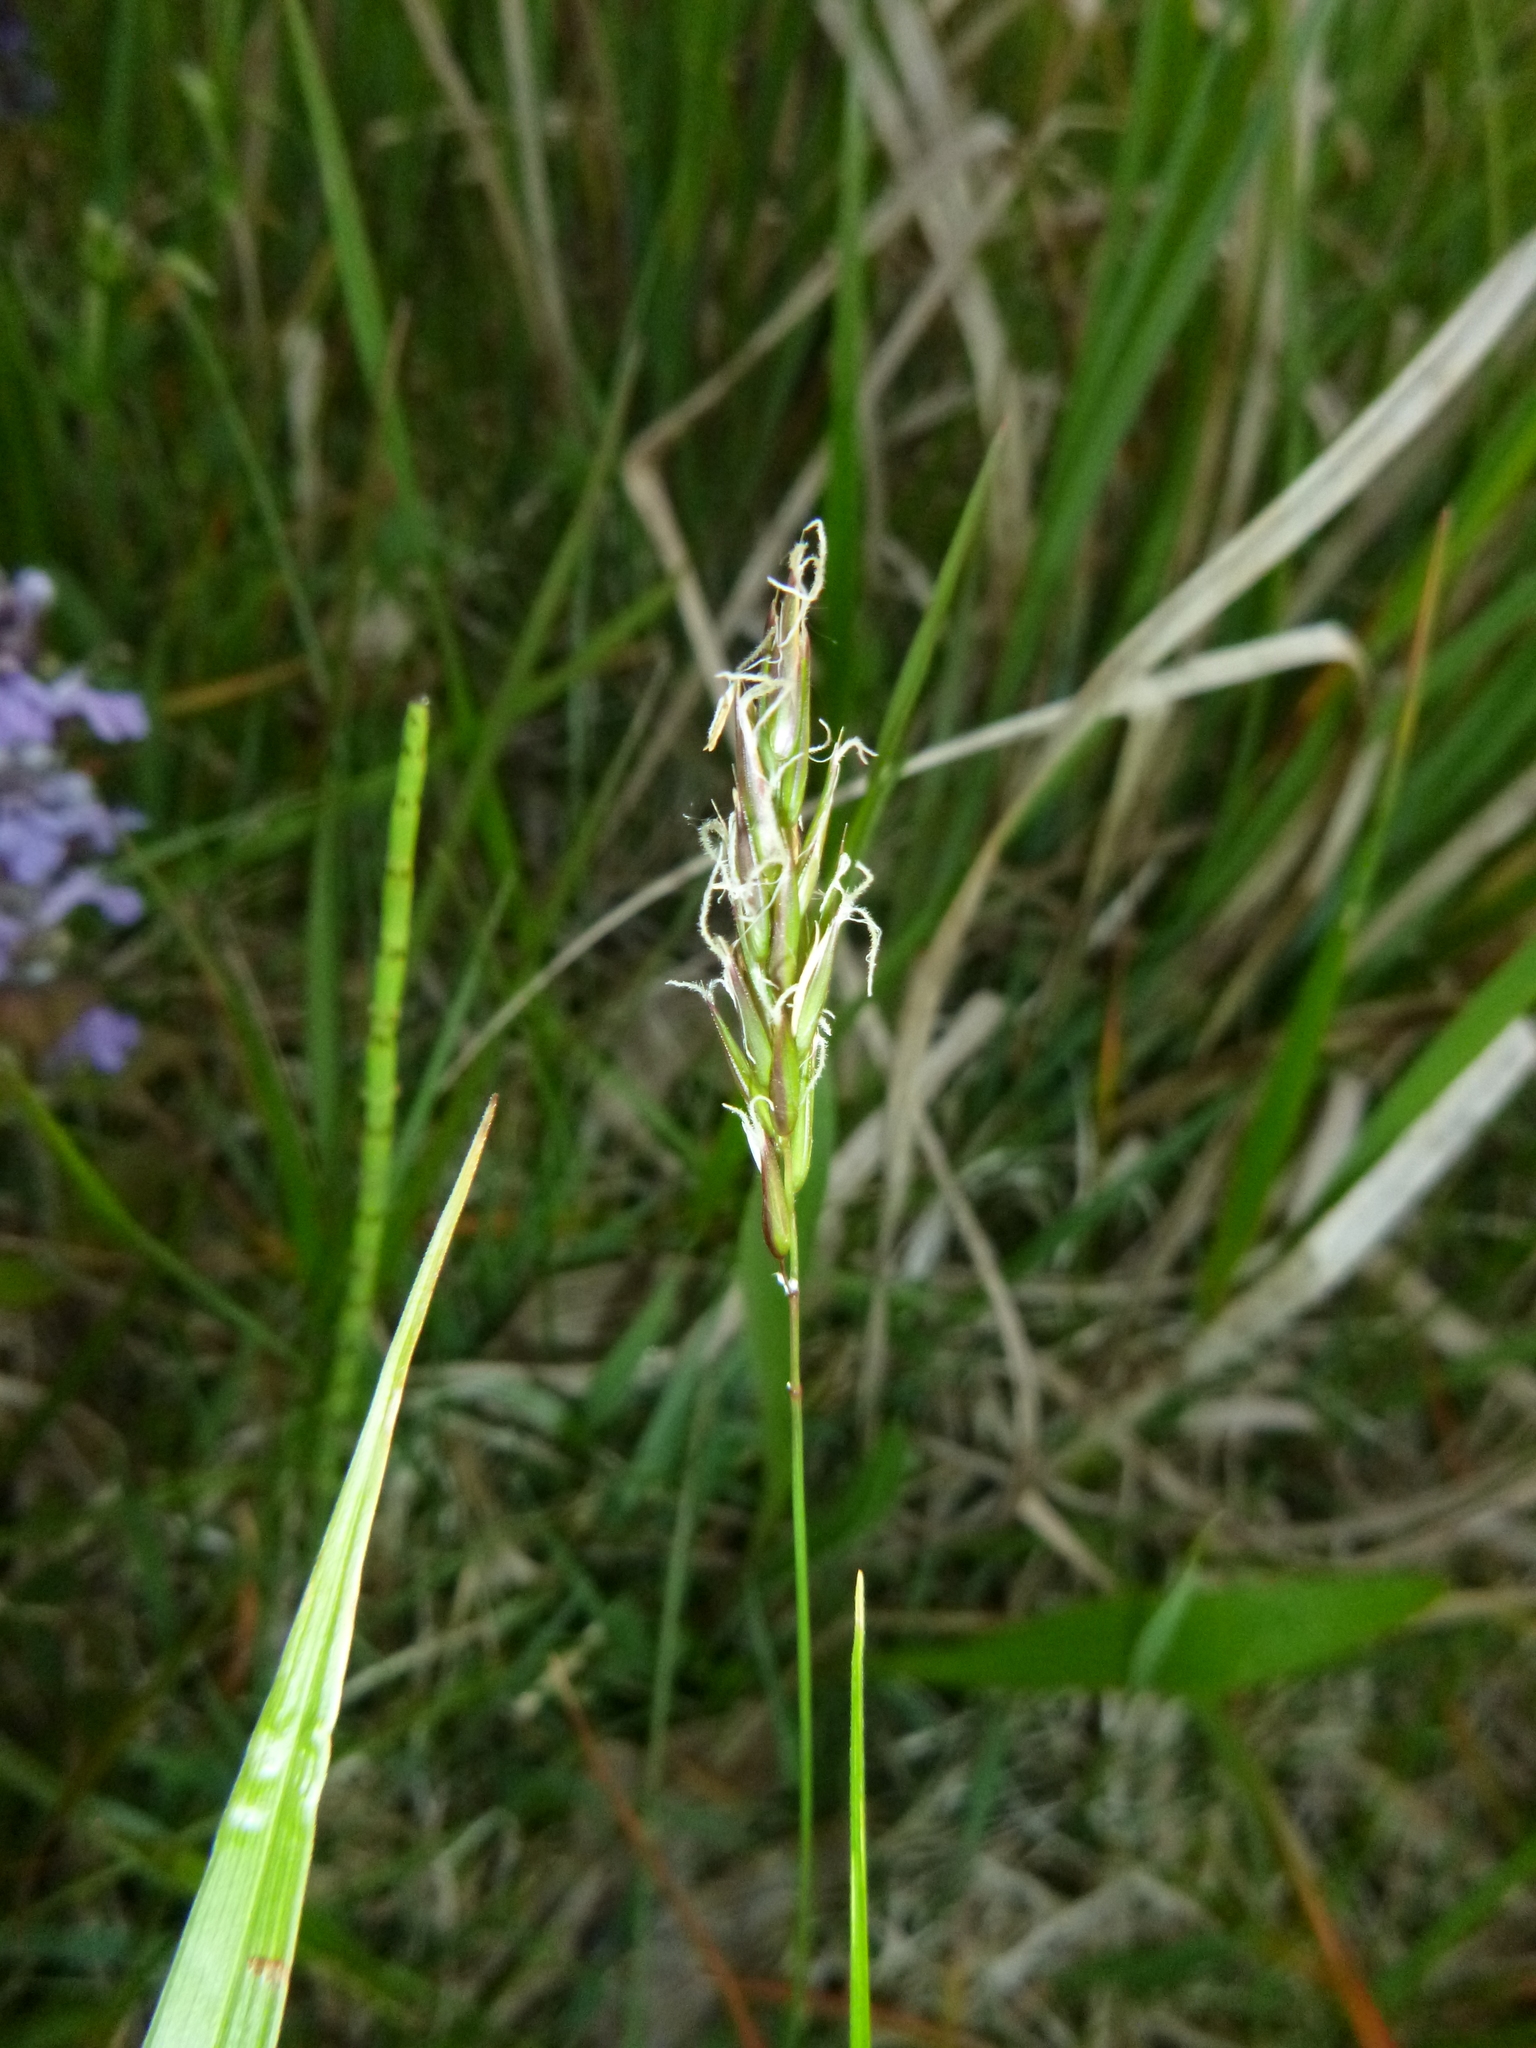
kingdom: Plantae
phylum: Tracheophyta
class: Liliopsida
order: Poales
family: Poaceae
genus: Anthoxanthum
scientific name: Anthoxanthum odoratum
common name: Sweet vernalgrass
